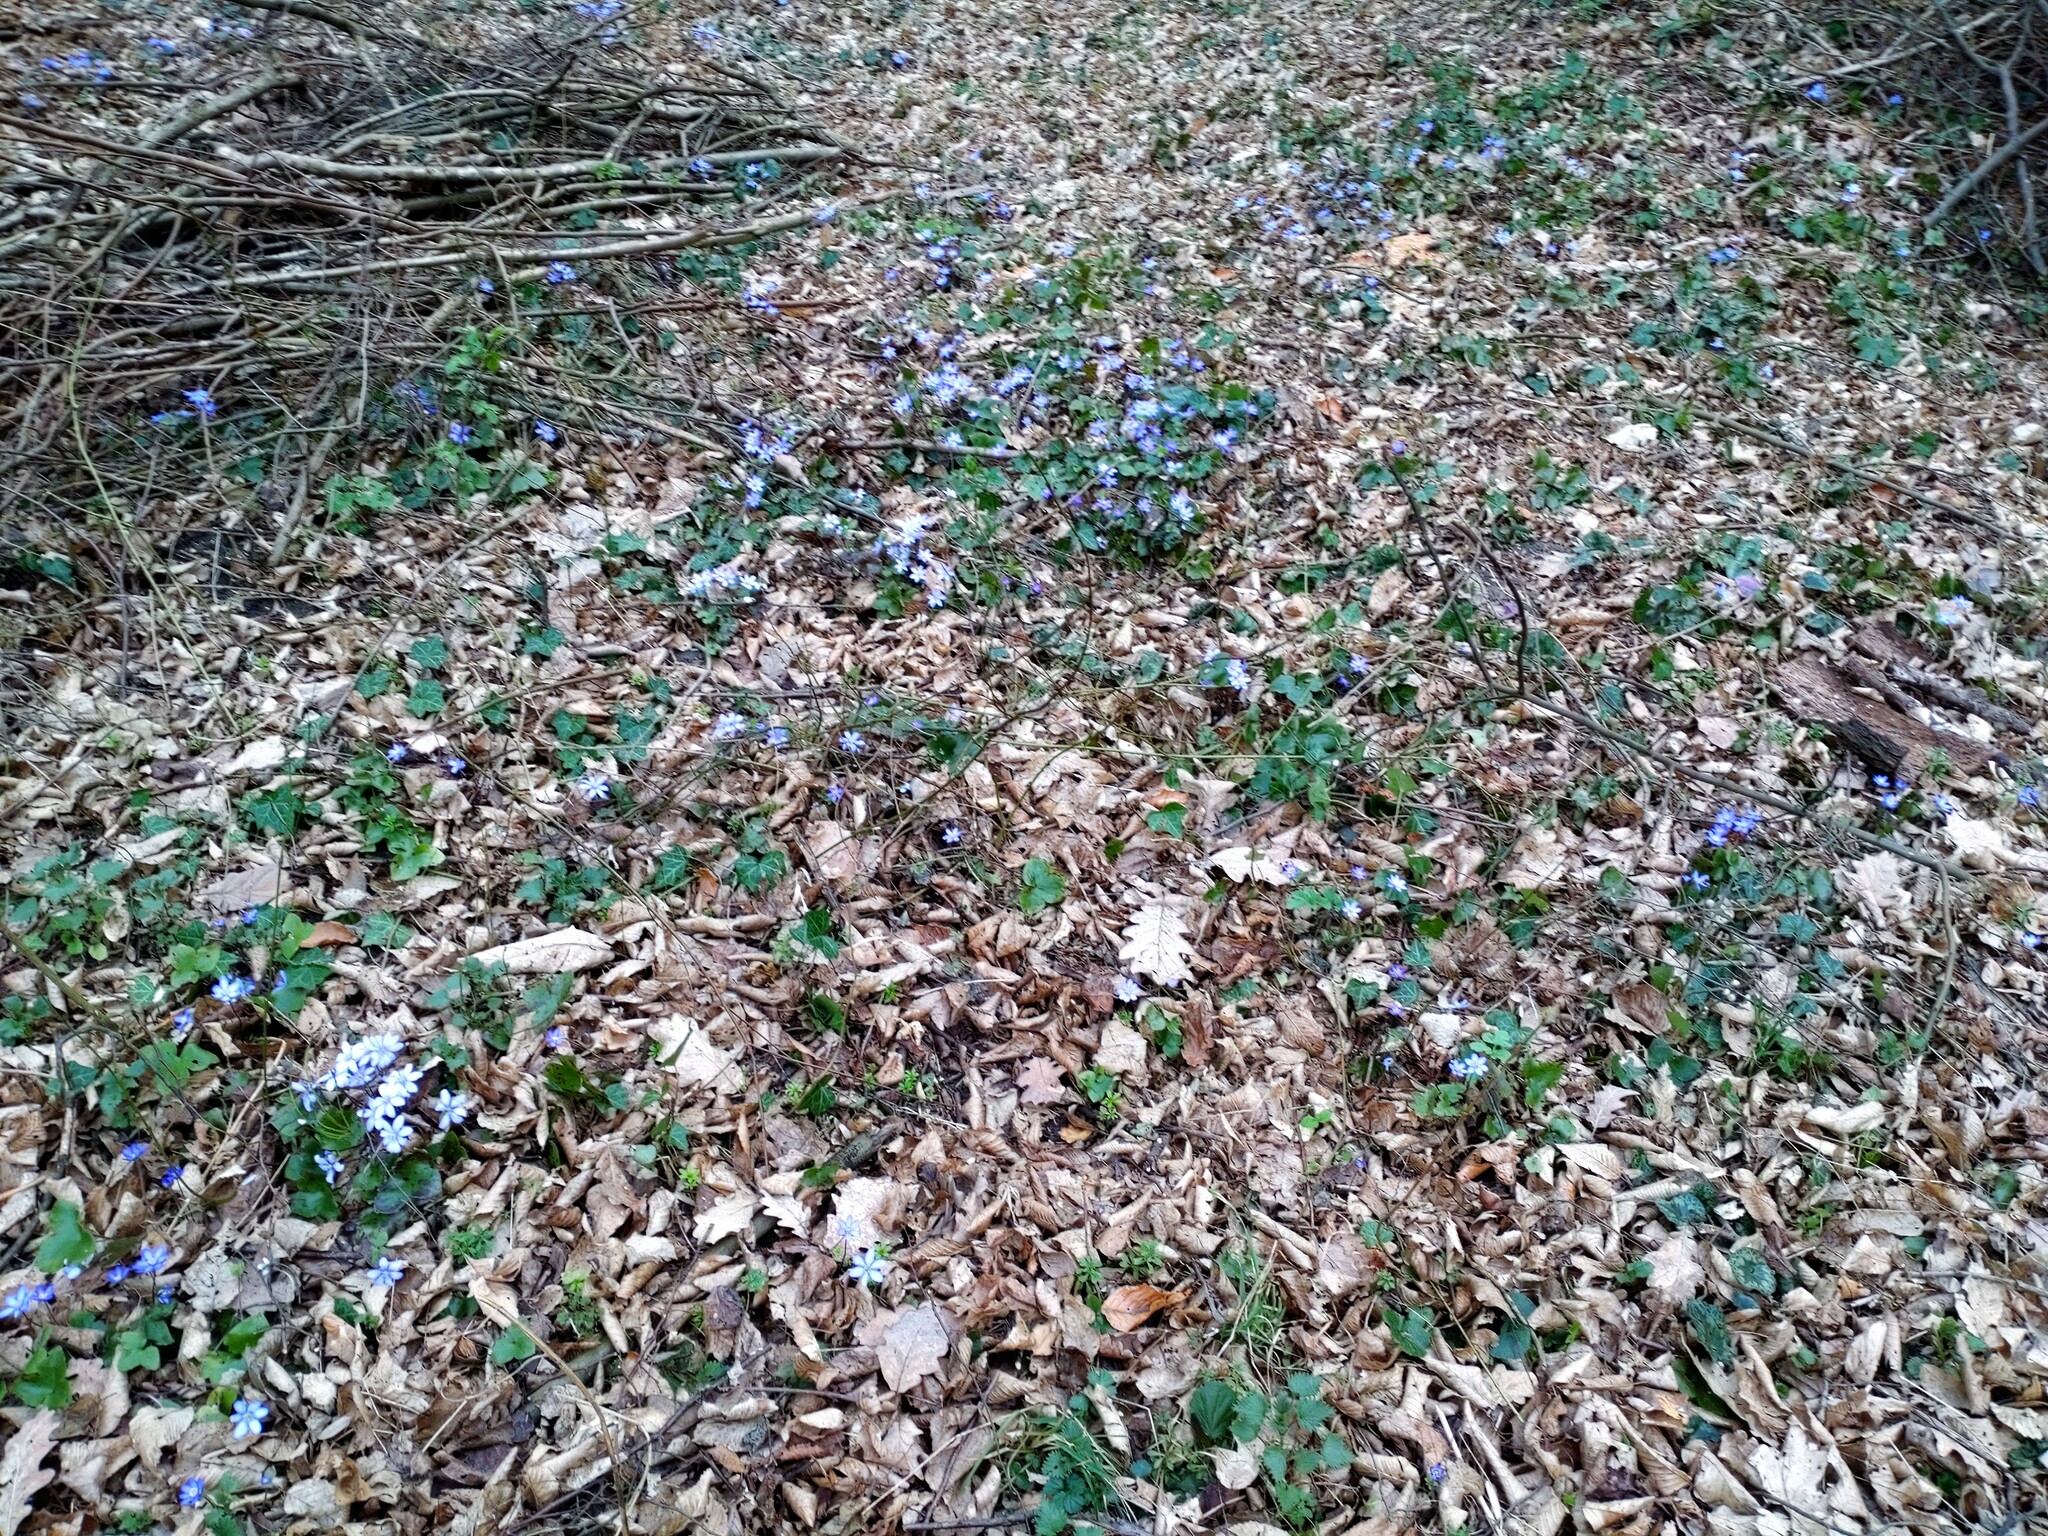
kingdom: Plantae
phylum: Tracheophyta
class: Magnoliopsida
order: Ranunculales
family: Ranunculaceae
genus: Hepatica
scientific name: Hepatica nobilis
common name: Liverleaf
